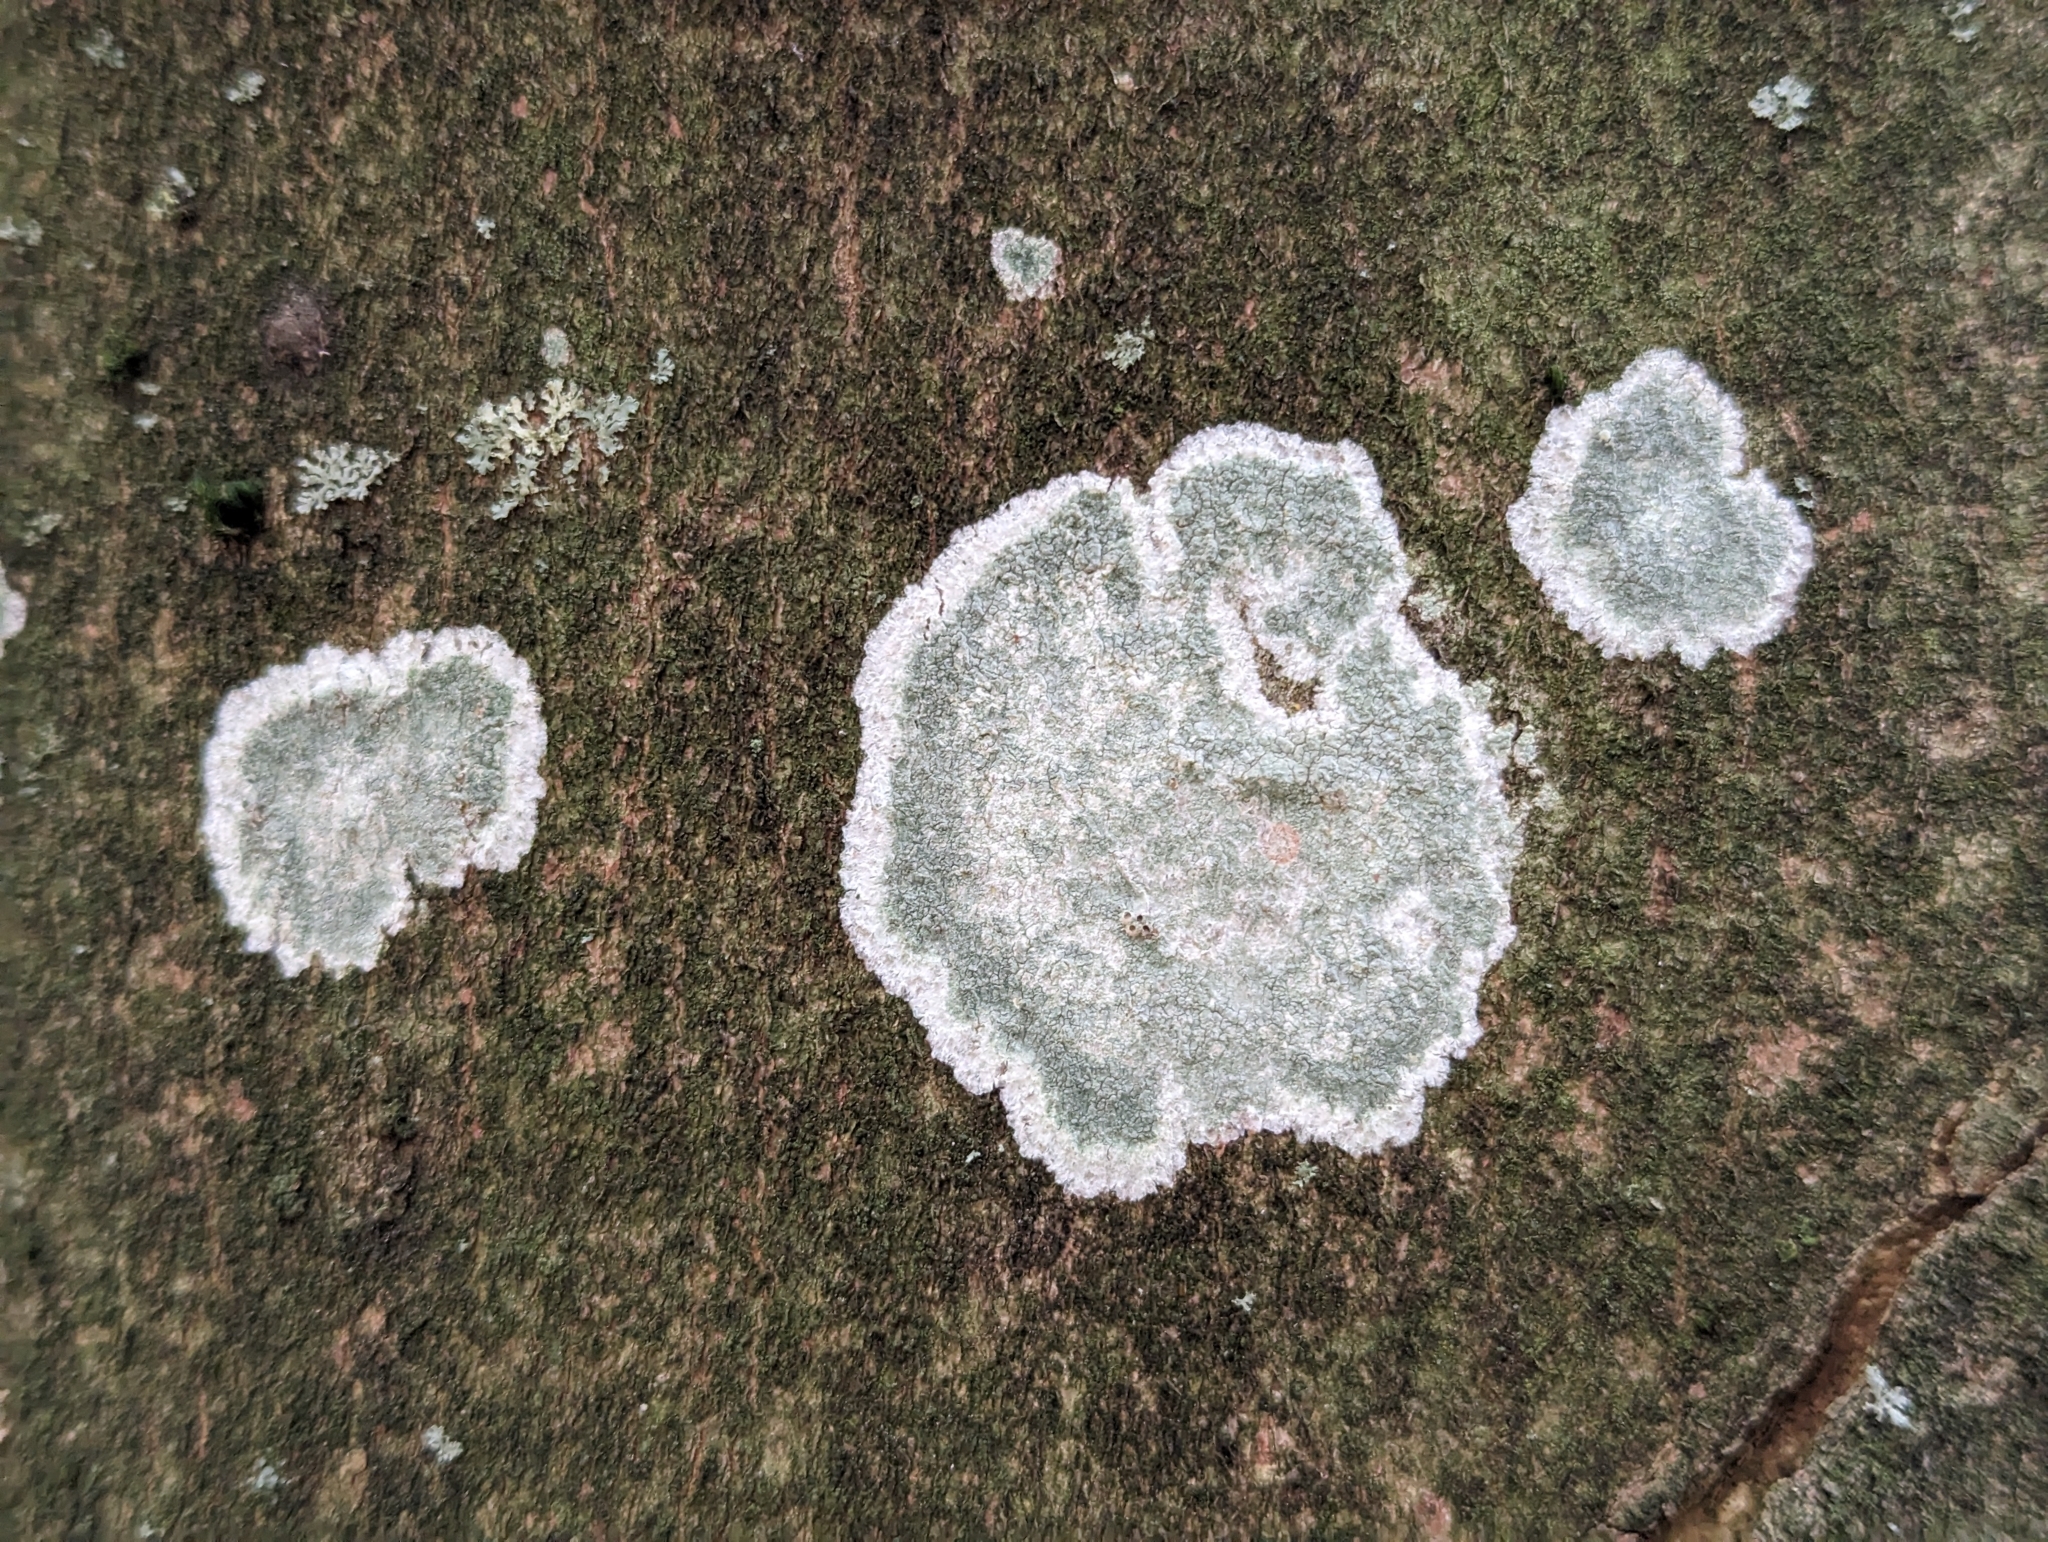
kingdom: Fungi
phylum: Ascomycota
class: Lecanoromycetes
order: Ostropales
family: Phlyctidaceae
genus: Phlyctis
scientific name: Phlyctis argena
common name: Whitewash lichen
